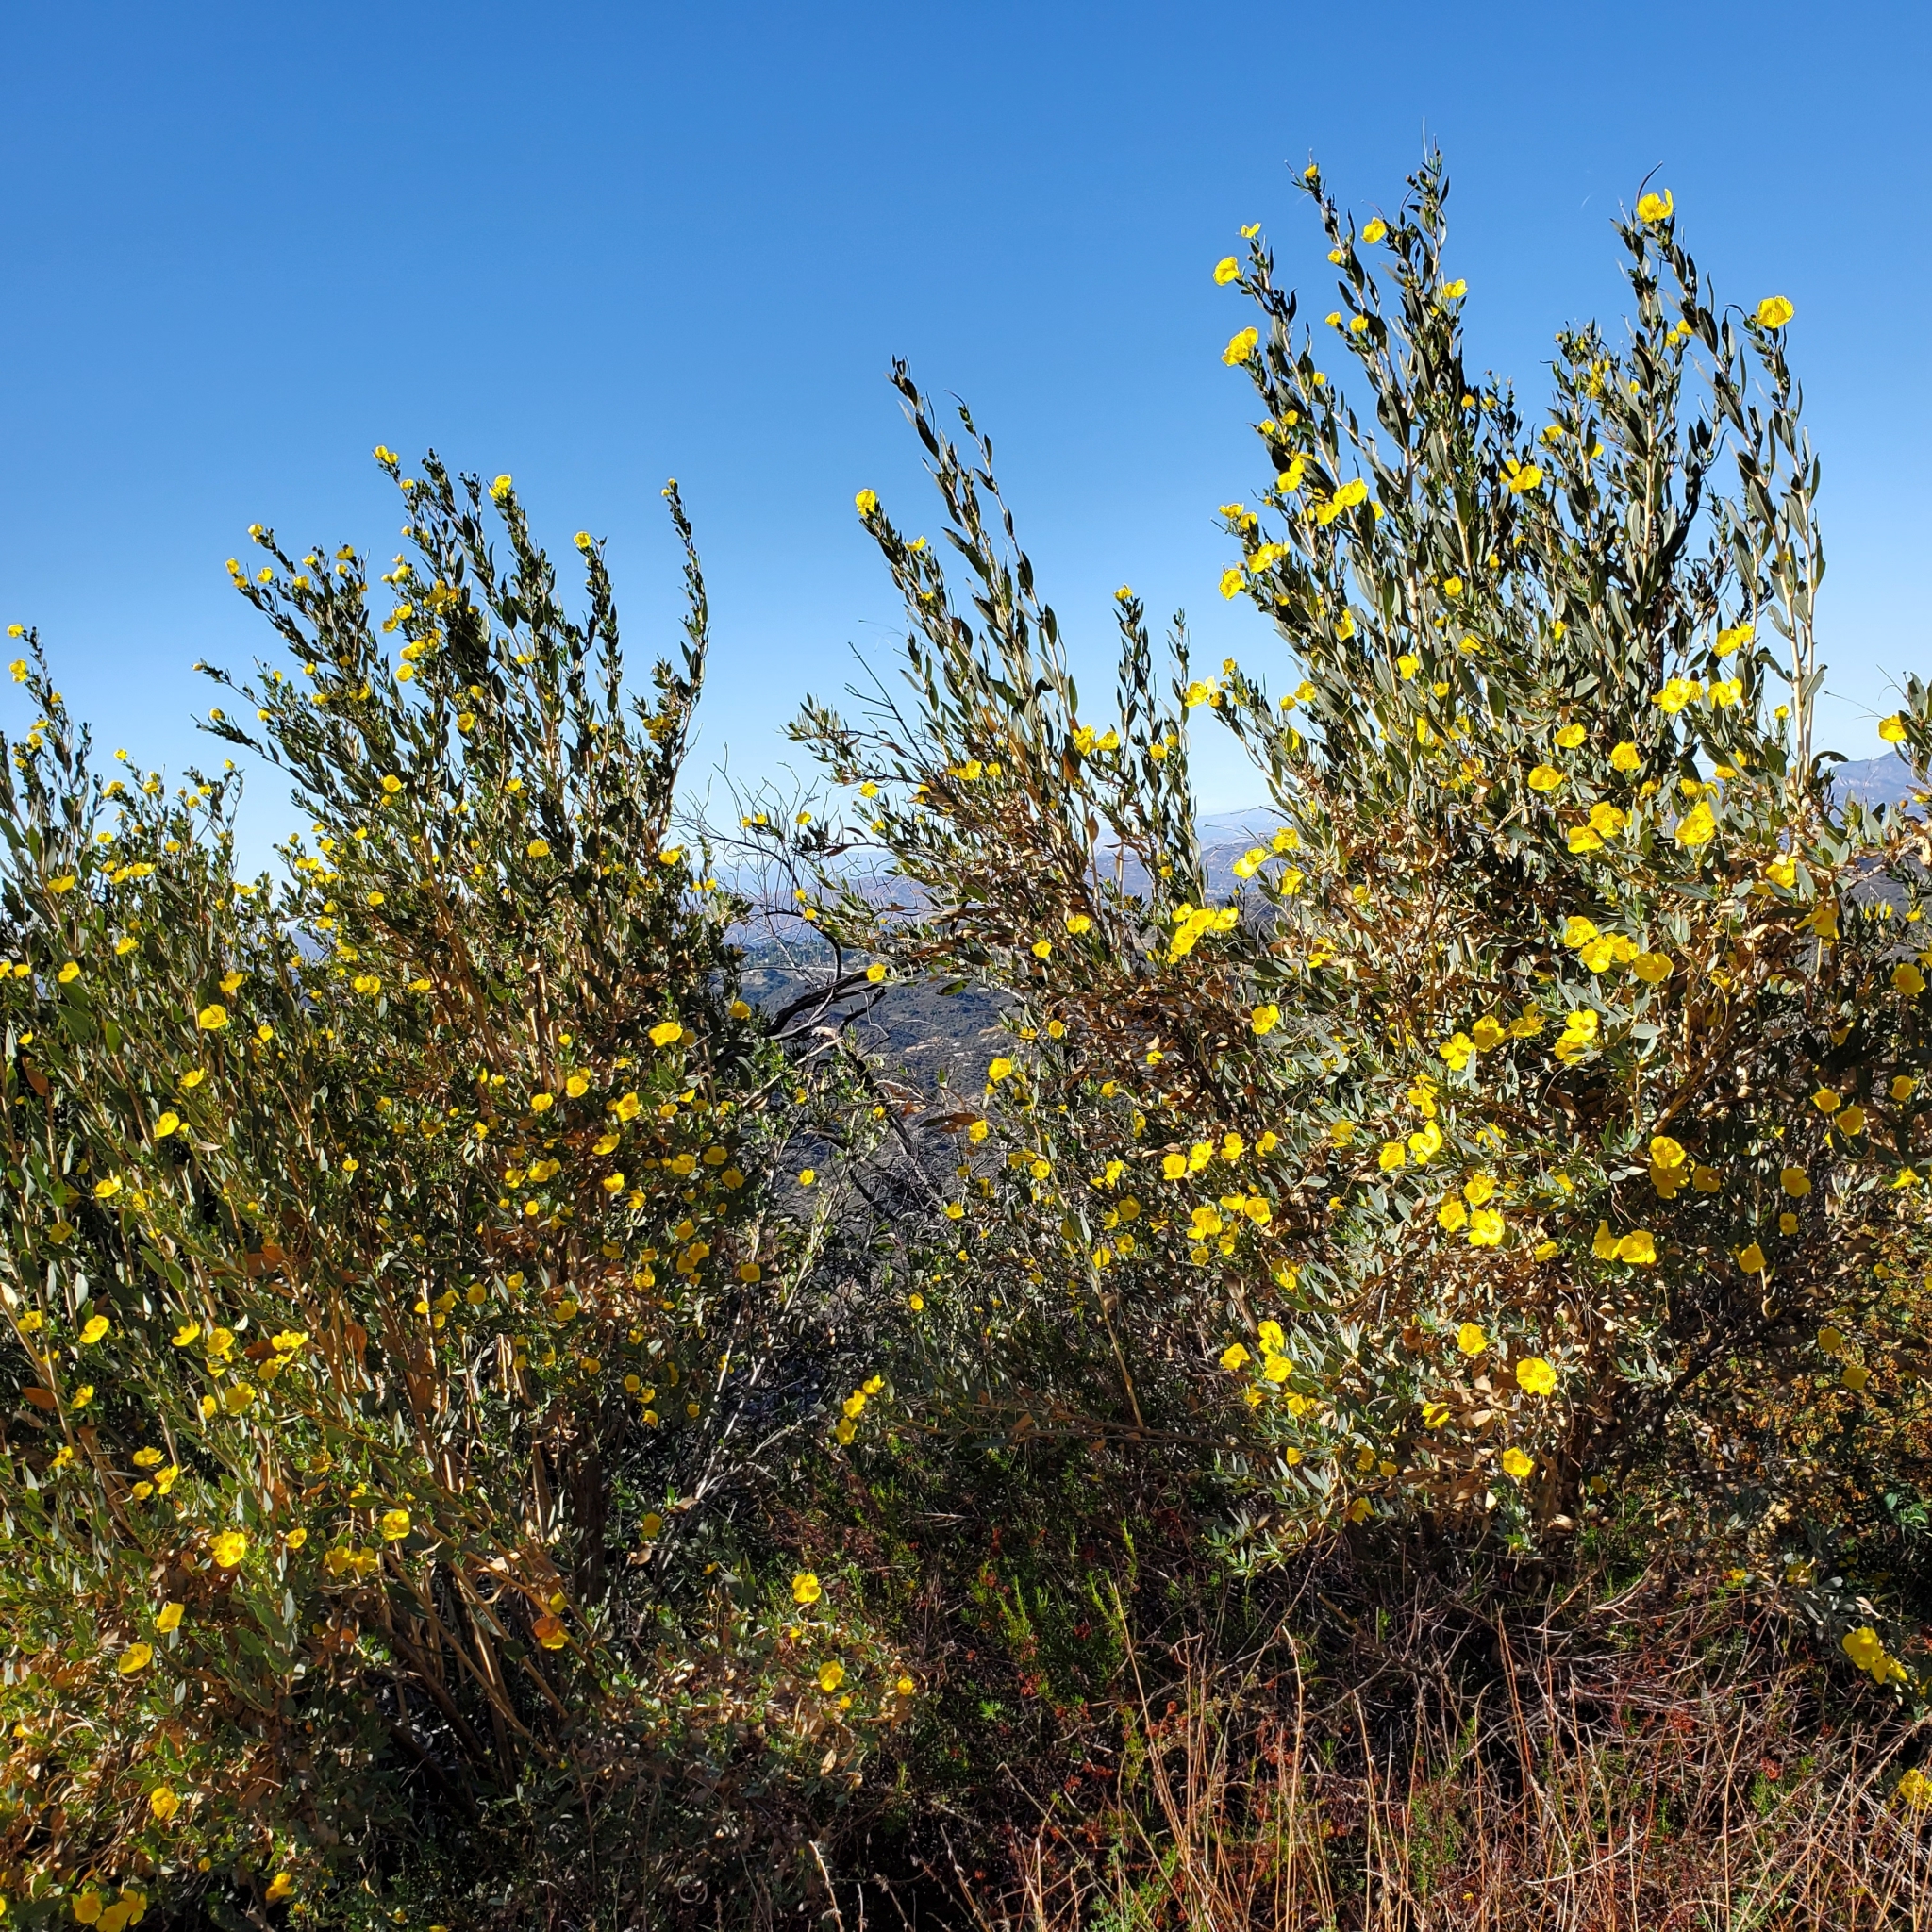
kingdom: Plantae
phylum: Tracheophyta
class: Magnoliopsida
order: Ranunculales
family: Papaveraceae
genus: Dendromecon
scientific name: Dendromecon rigida
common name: Tree poppy
